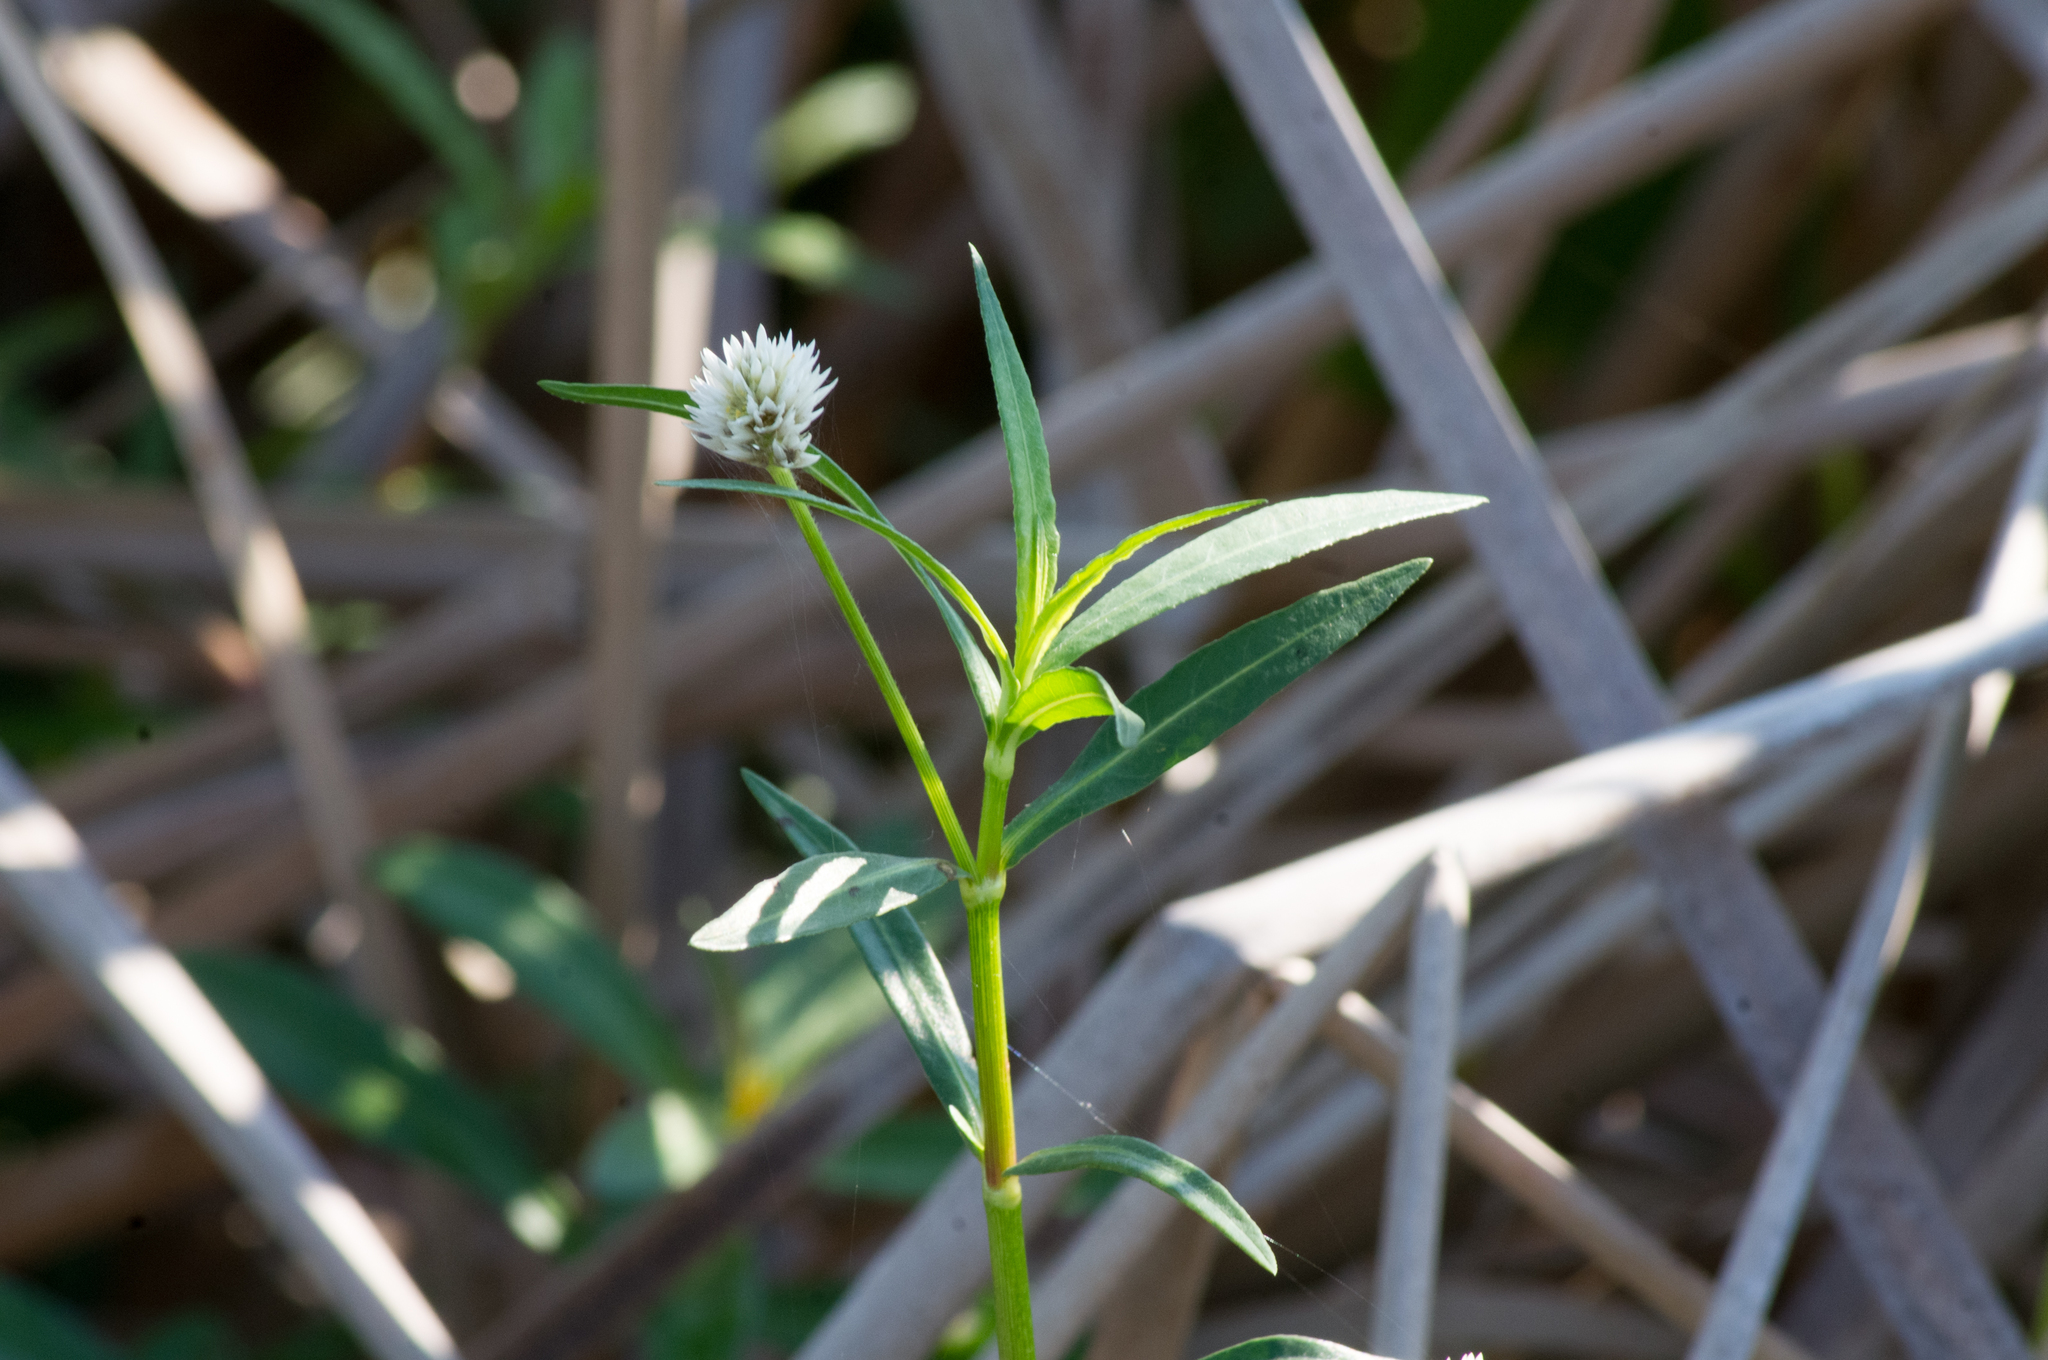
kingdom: Plantae
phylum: Tracheophyta
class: Magnoliopsida
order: Caryophyllales
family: Amaranthaceae
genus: Alternanthera
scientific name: Alternanthera philoxeroides
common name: Alligatorweed
